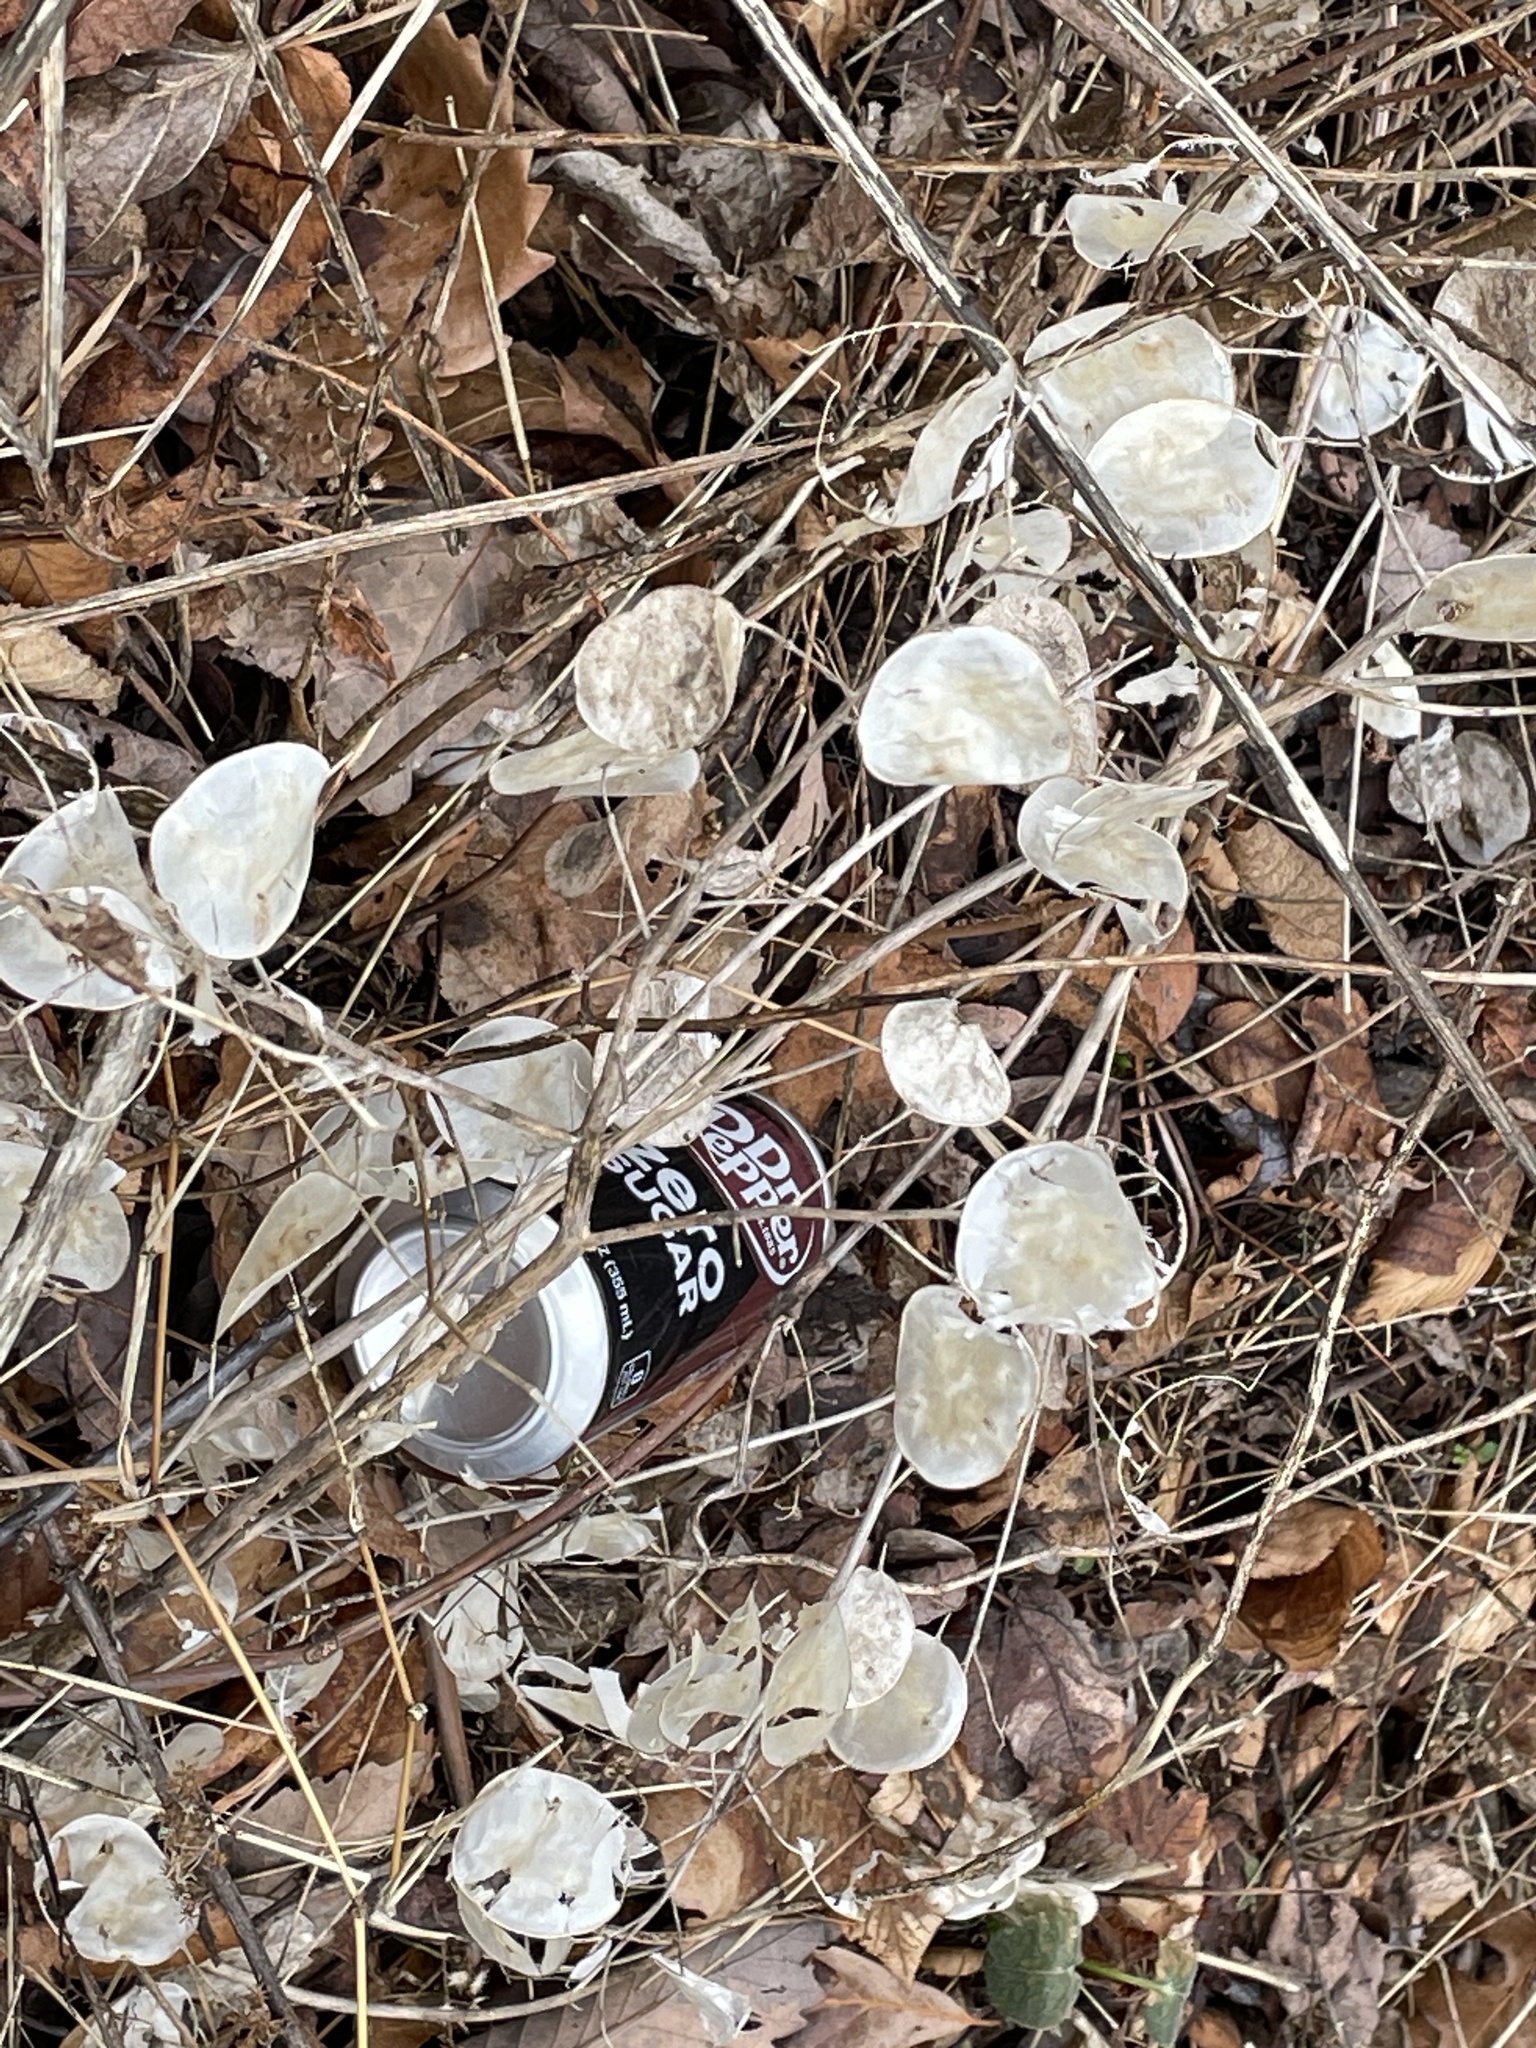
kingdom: Plantae
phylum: Tracheophyta
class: Magnoliopsida
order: Brassicales
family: Brassicaceae
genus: Lunaria
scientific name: Lunaria annua
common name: Honesty
